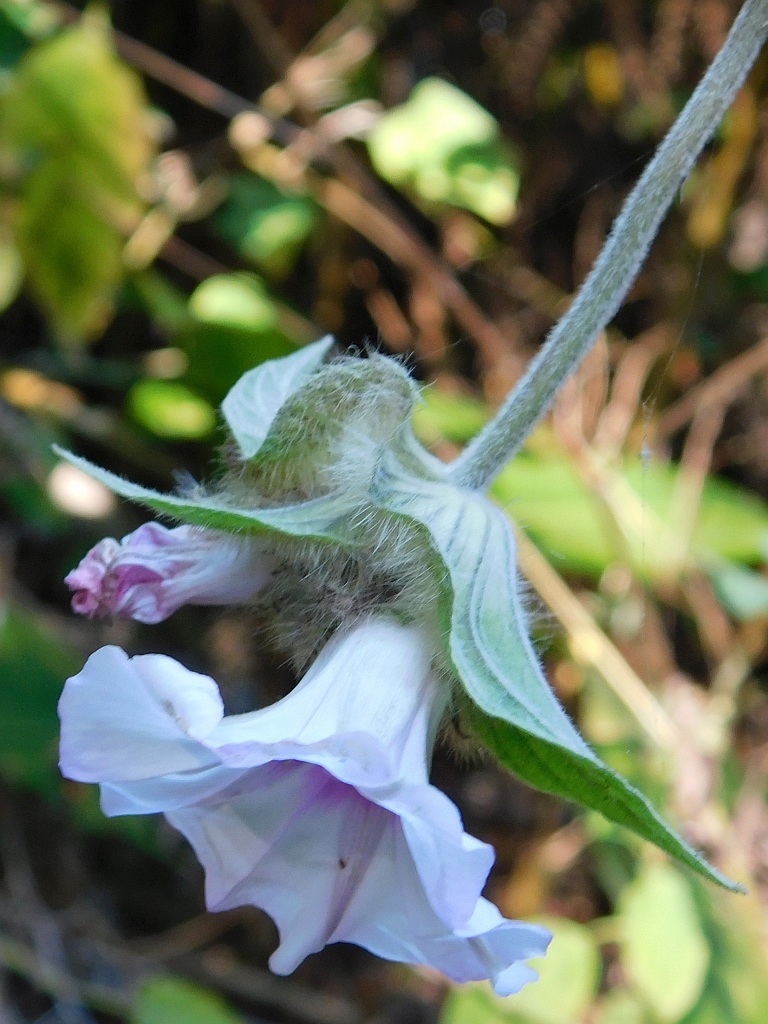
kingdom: Plantae
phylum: Tracheophyta
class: Magnoliopsida
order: Solanales
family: Convolvulaceae
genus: Ipomoea
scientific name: Ipomoea involucrata
